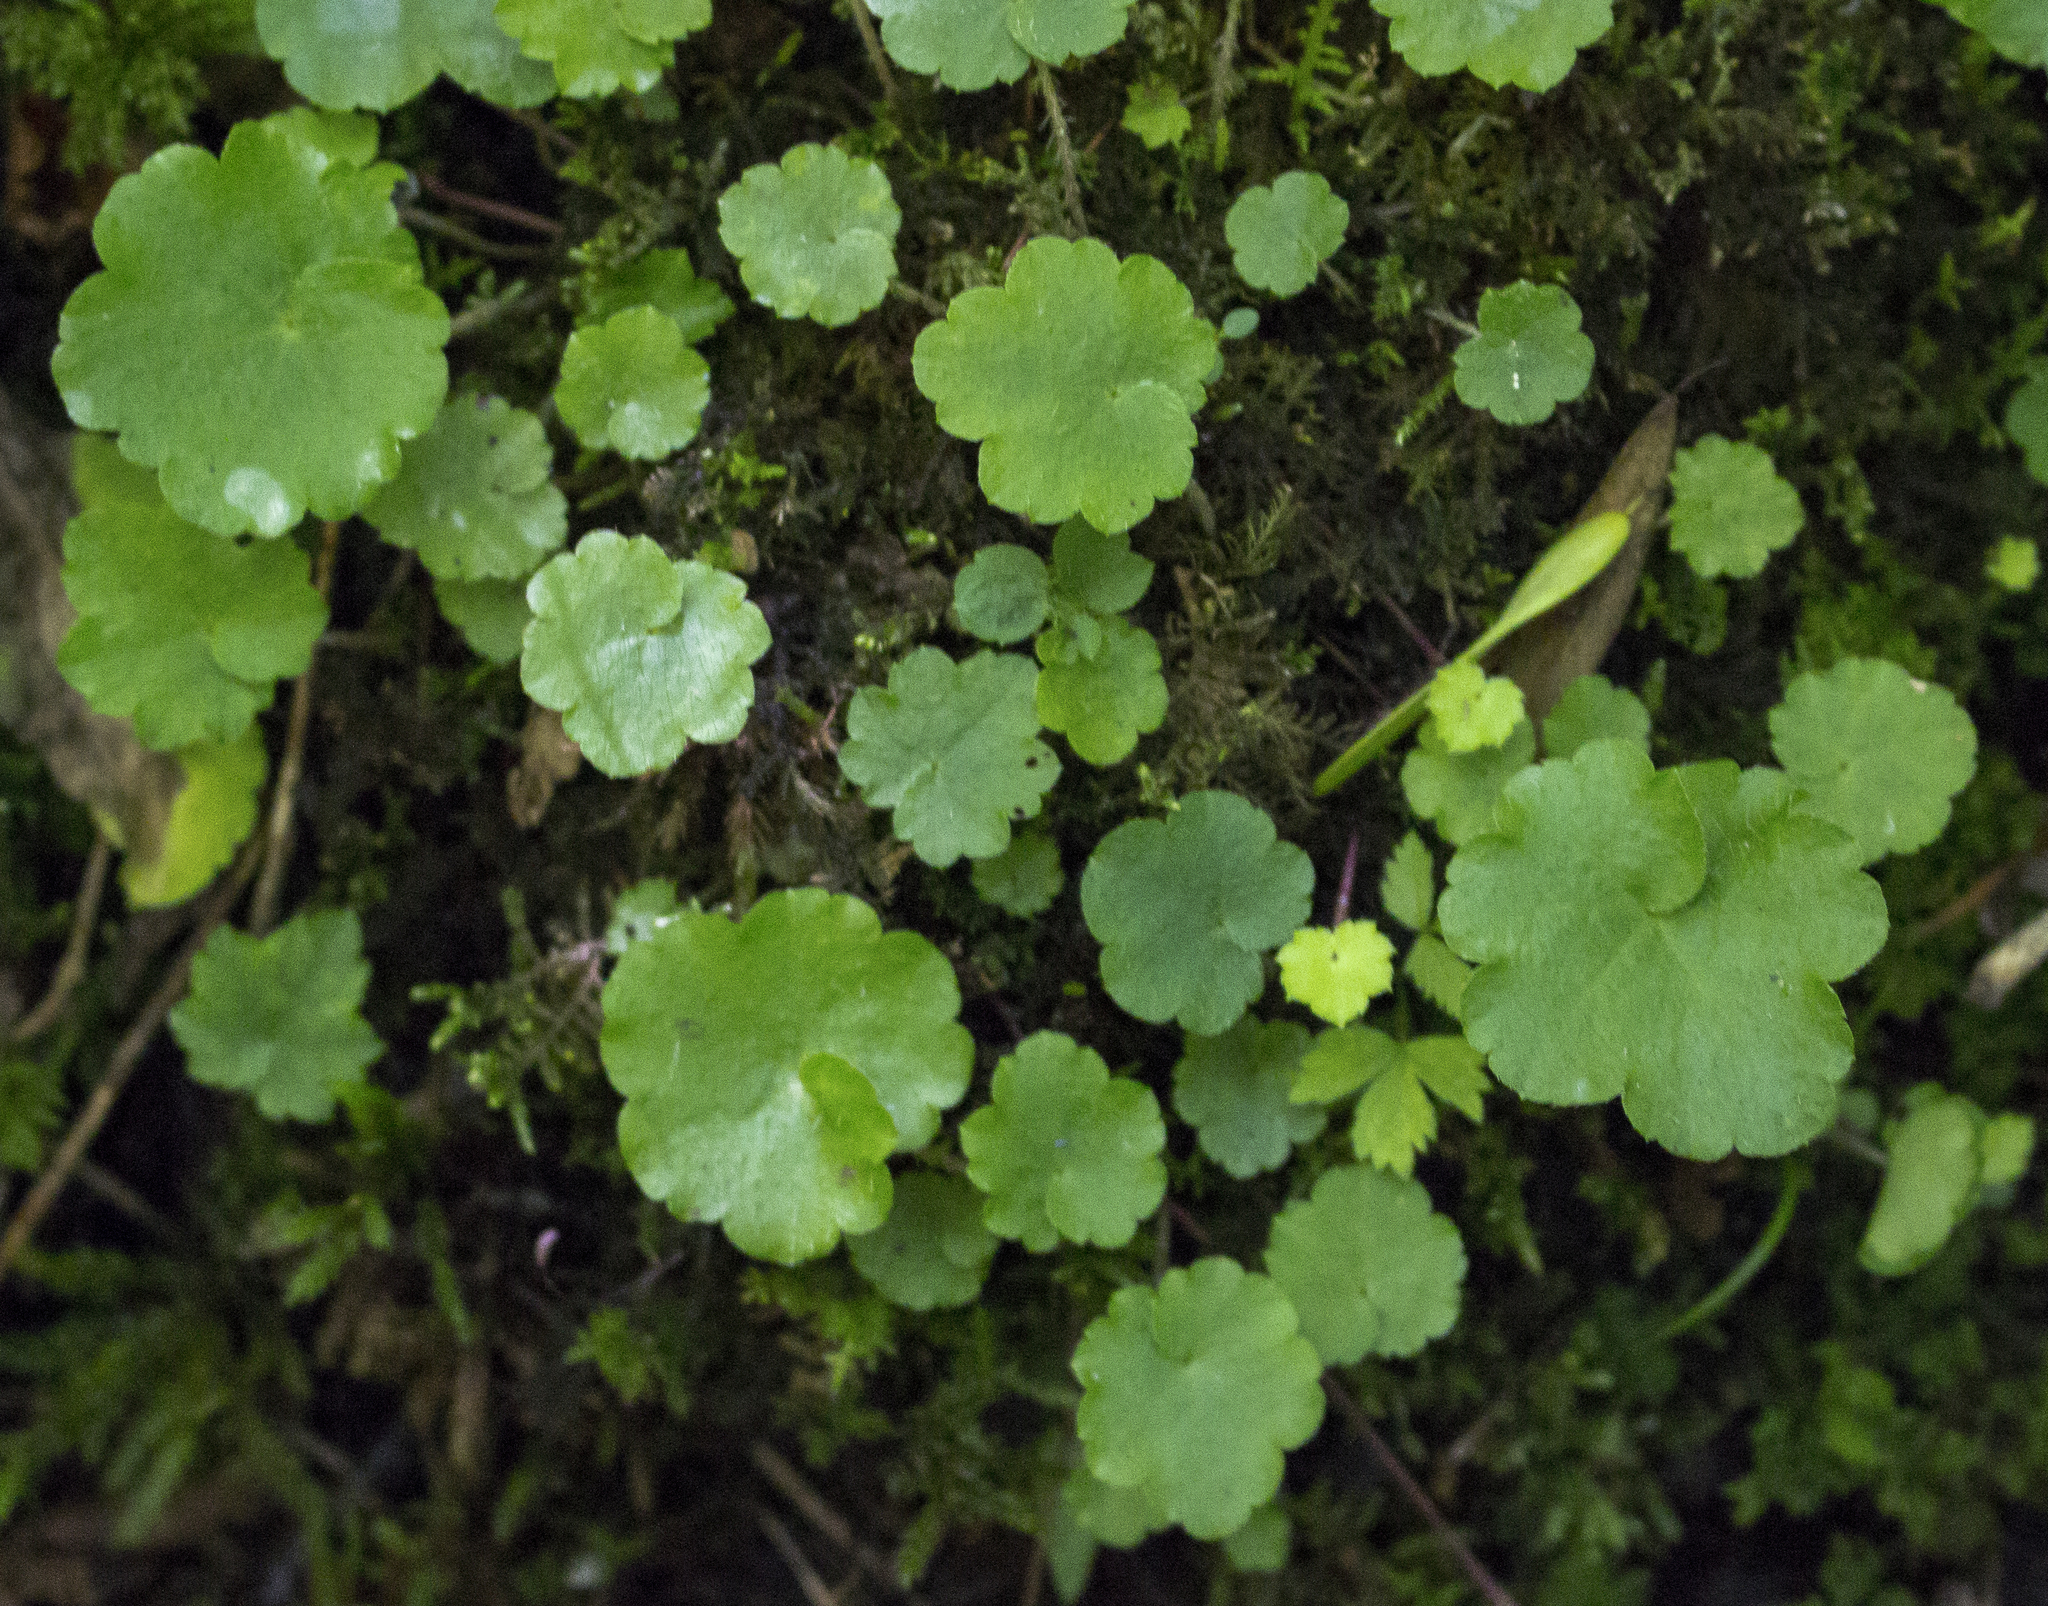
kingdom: Plantae
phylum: Tracheophyta
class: Magnoliopsida
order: Saxifragales
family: Saxifragaceae
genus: Mitella
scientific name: Mitella nuda
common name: Bare-stemmed bishop's-cap
